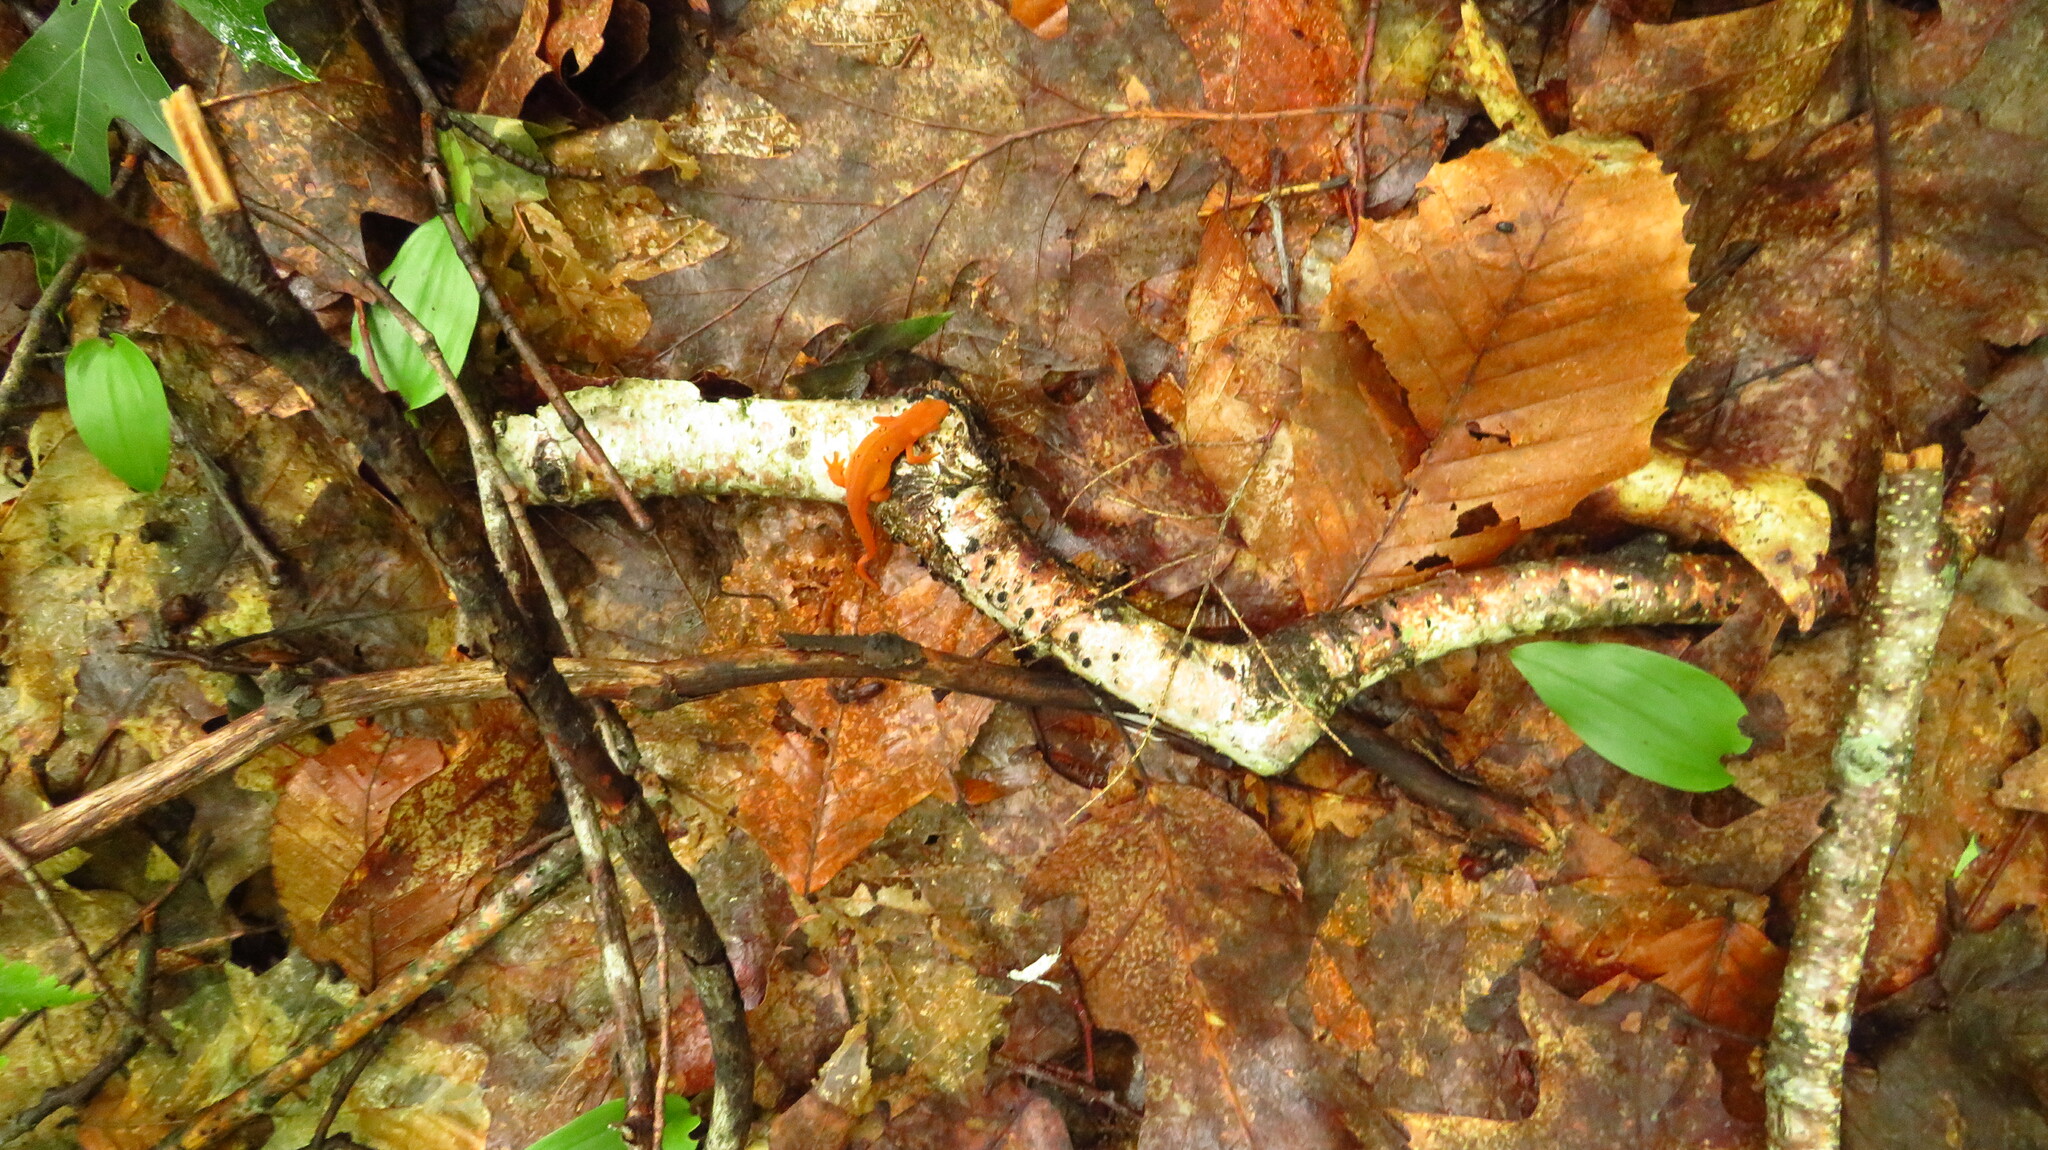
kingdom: Animalia
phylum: Chordata
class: Amphibia
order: Caudata
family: Salamandridae
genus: Notophthalmus
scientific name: Notophthalmus viridescens
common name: Eastern newt
